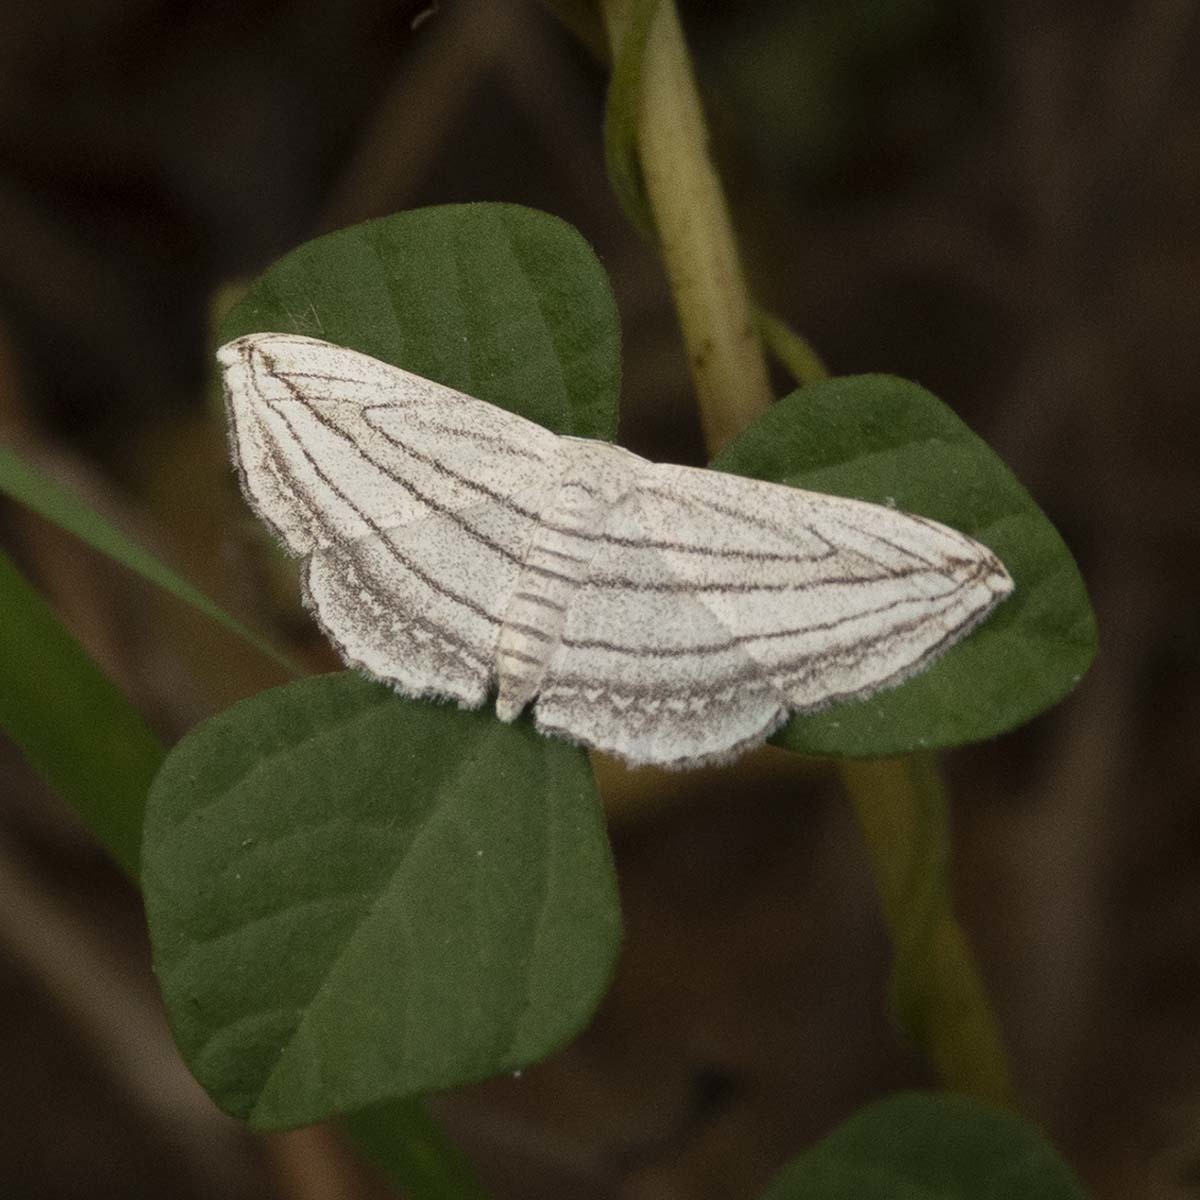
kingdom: Animalia
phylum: Arthropoda
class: Insecta
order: Lepidoptera
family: Geometridae
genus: Scopula
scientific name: Scopula opicata
